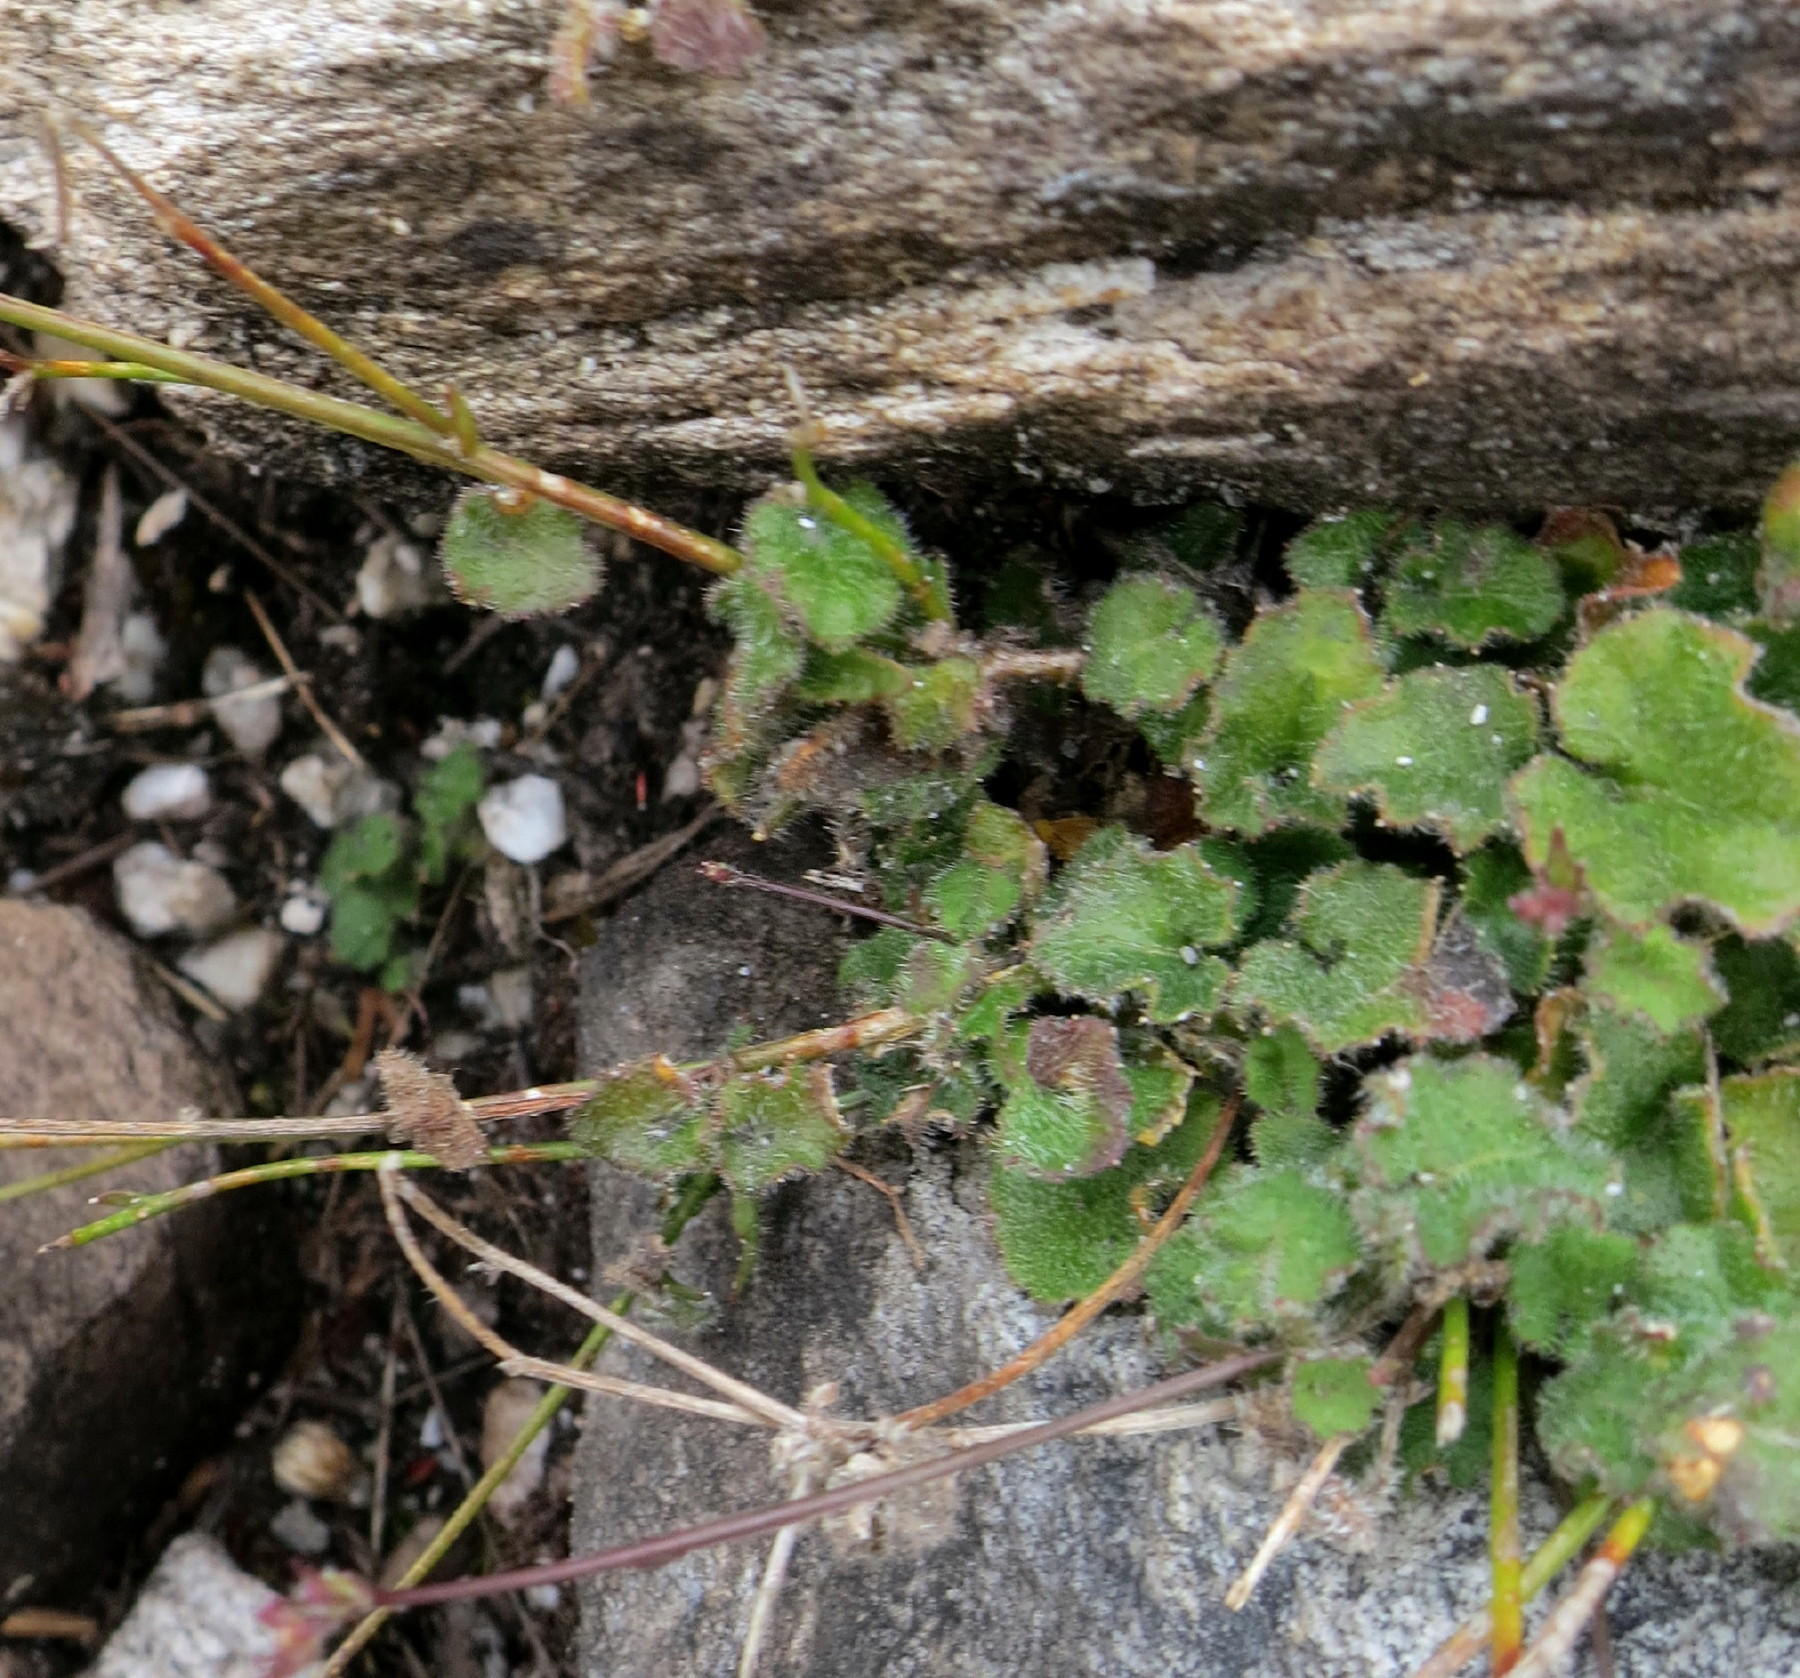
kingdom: Plantae
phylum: Tracheophyta
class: Magnoliopsida
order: Asterales
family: Campanulaceae
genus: Lobelia
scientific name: Lobelia ardisiandroides
